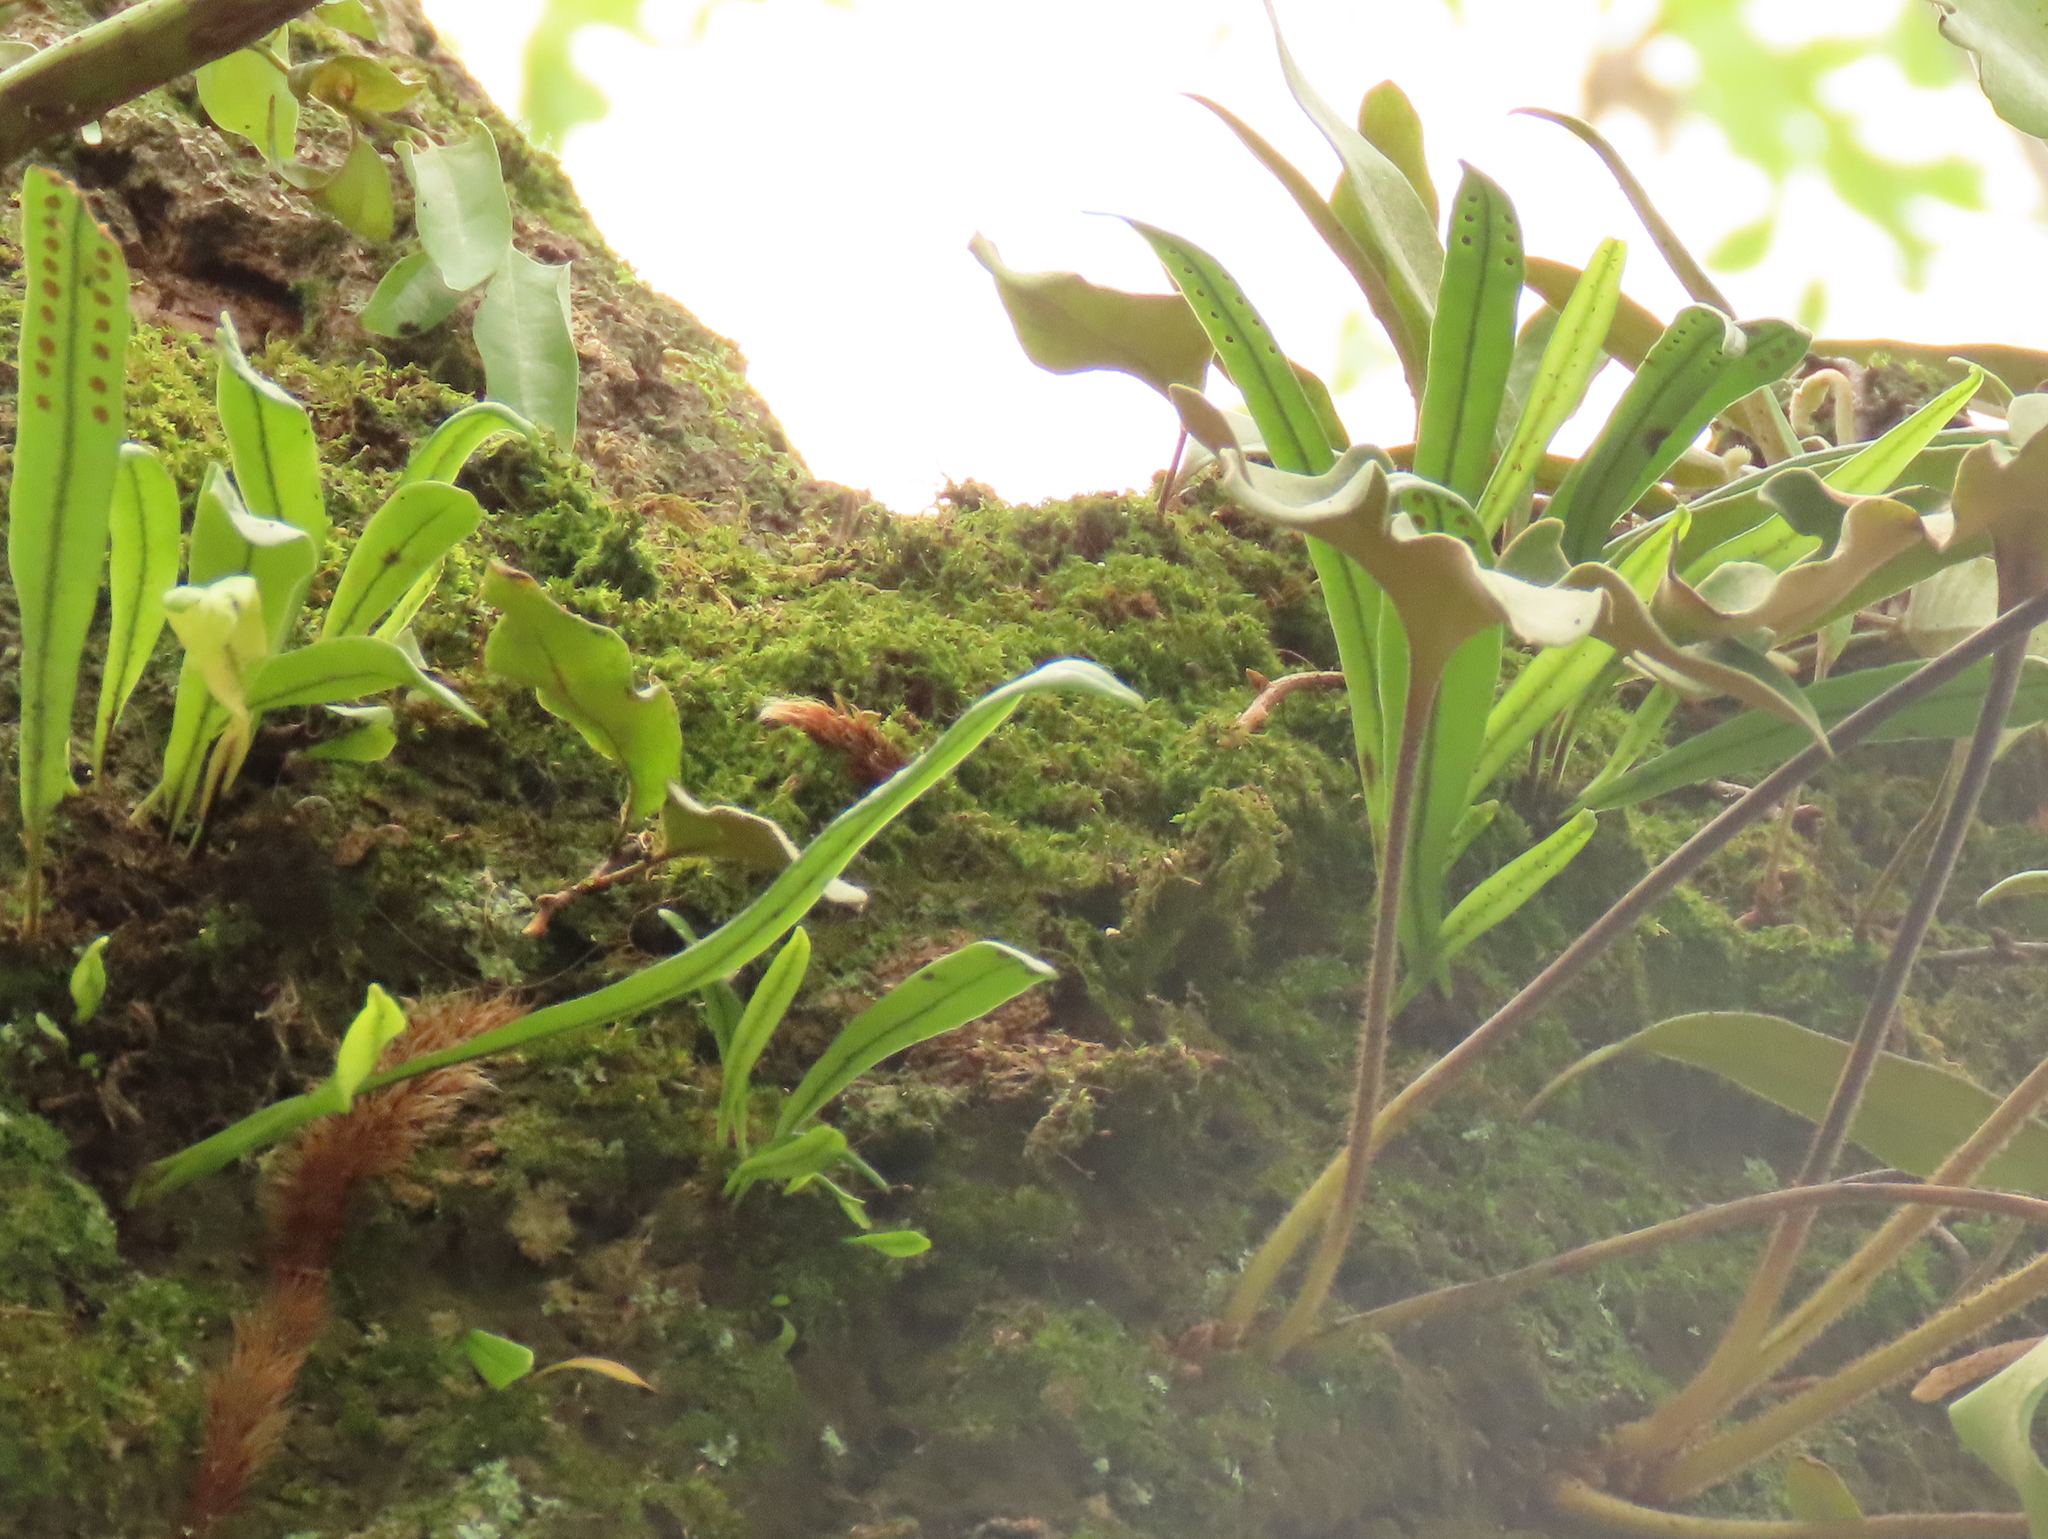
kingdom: Plantae
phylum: Tracheophyta
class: Polypodiopsida
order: Polypodiales
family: Polypodiaceae
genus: Lepisorus
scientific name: Lepisorus thunbergianus
